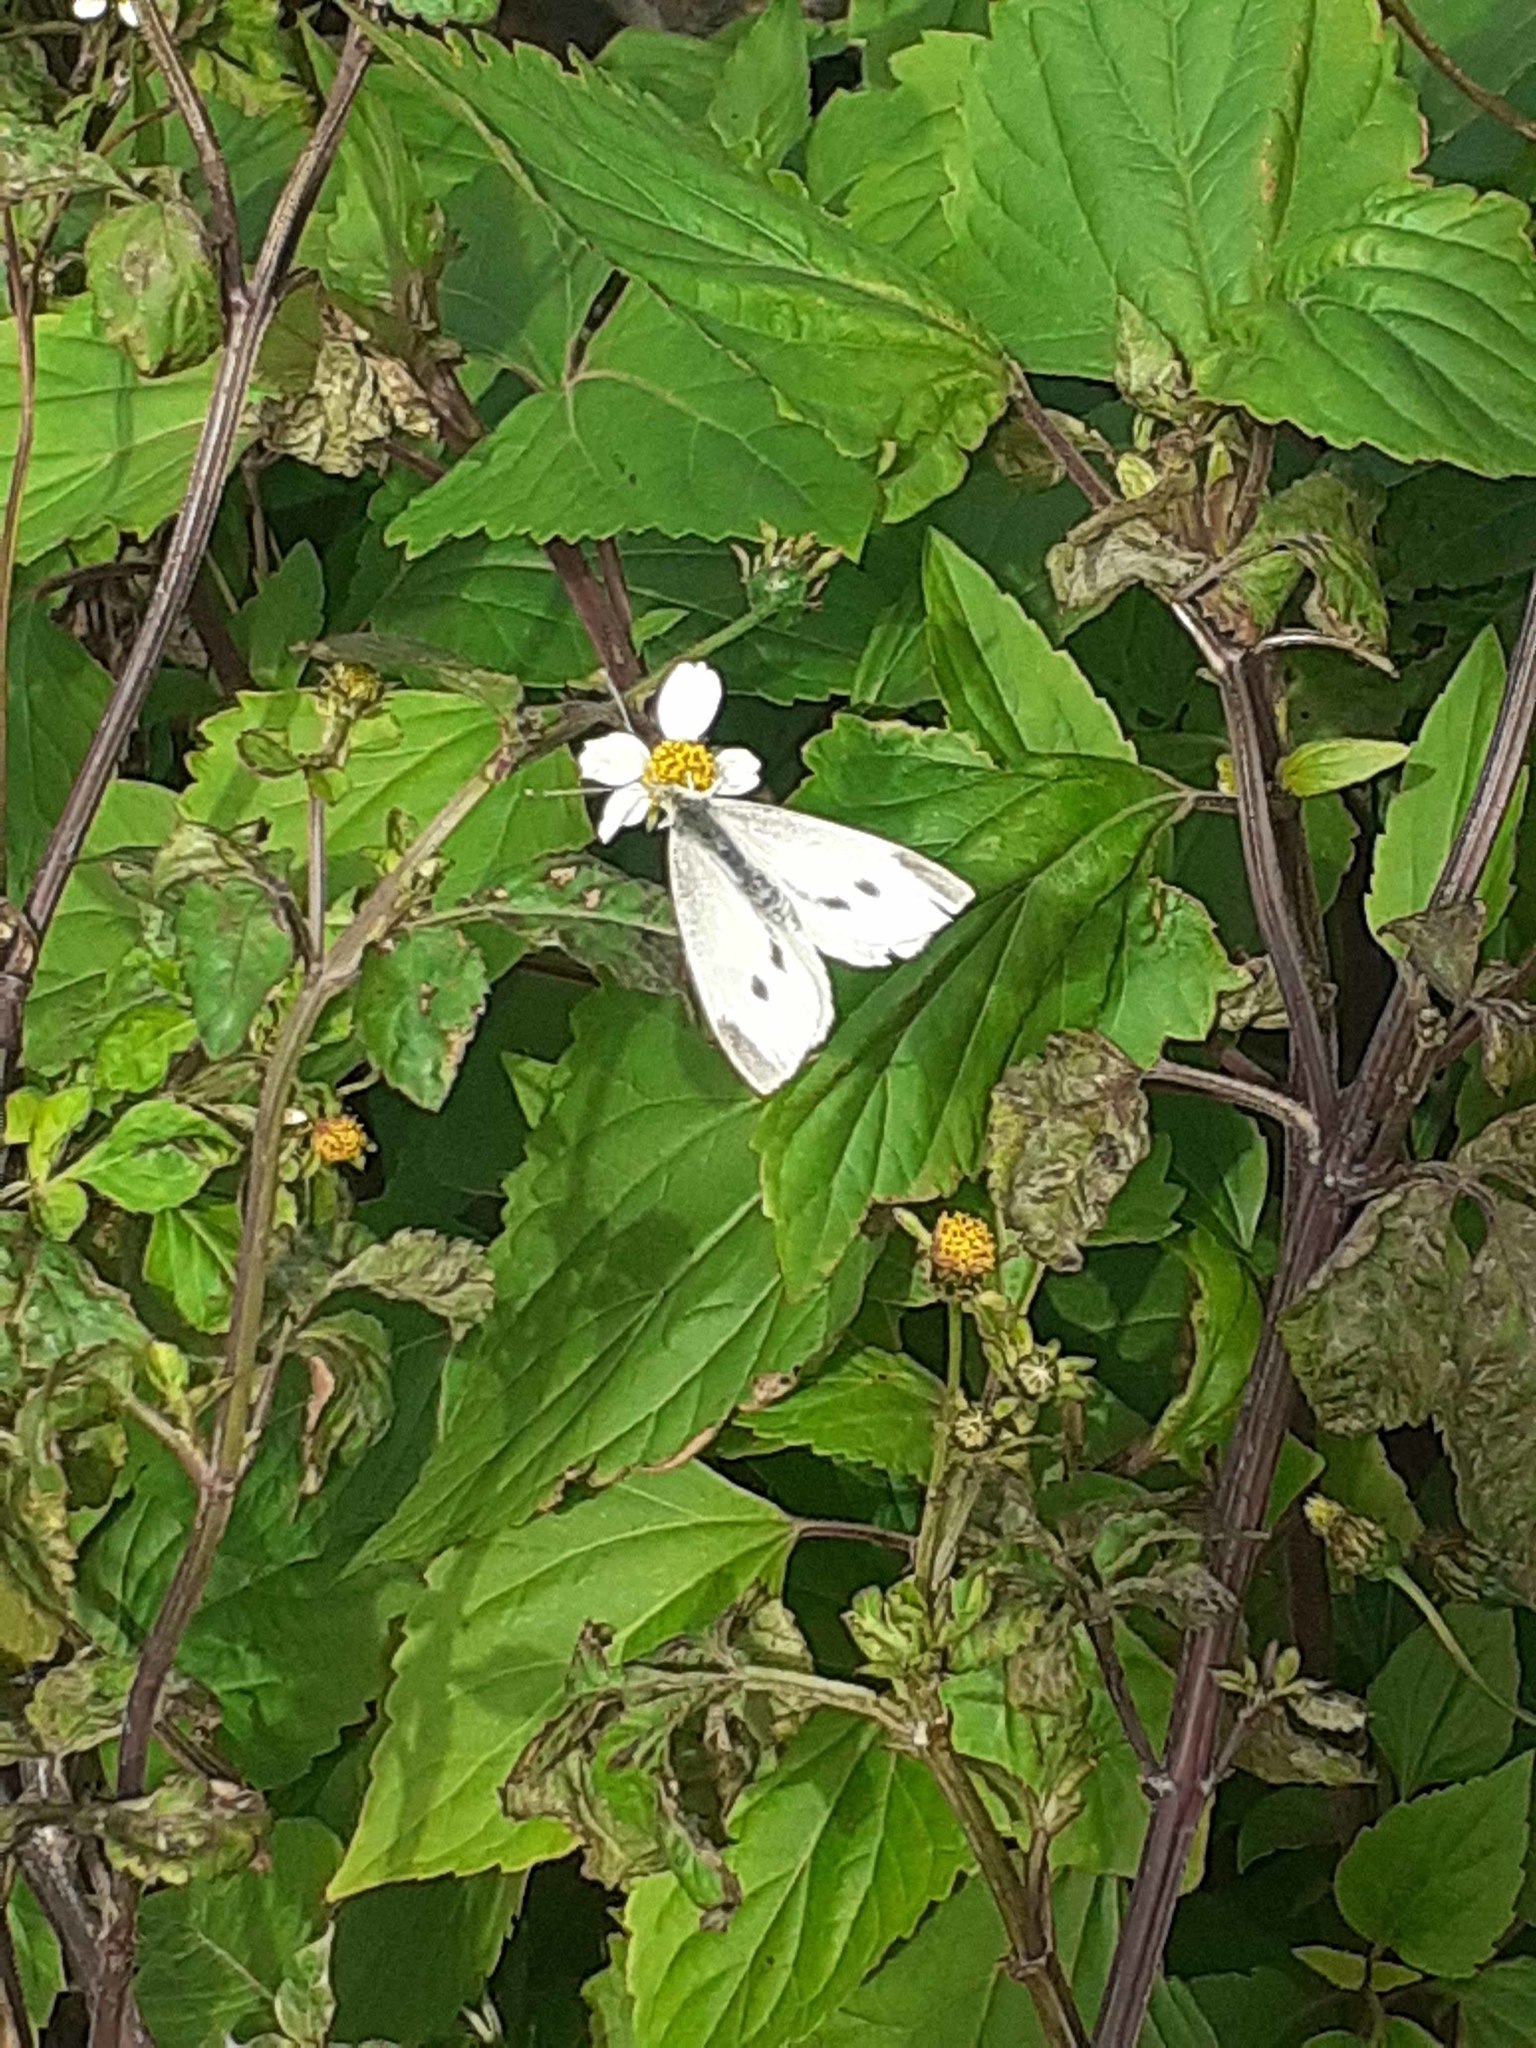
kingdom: Animalia
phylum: Arthropoda
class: Insecta
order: Lepidoptera
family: Pieridae
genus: Pieris
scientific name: Pieris rapae
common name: Small white
